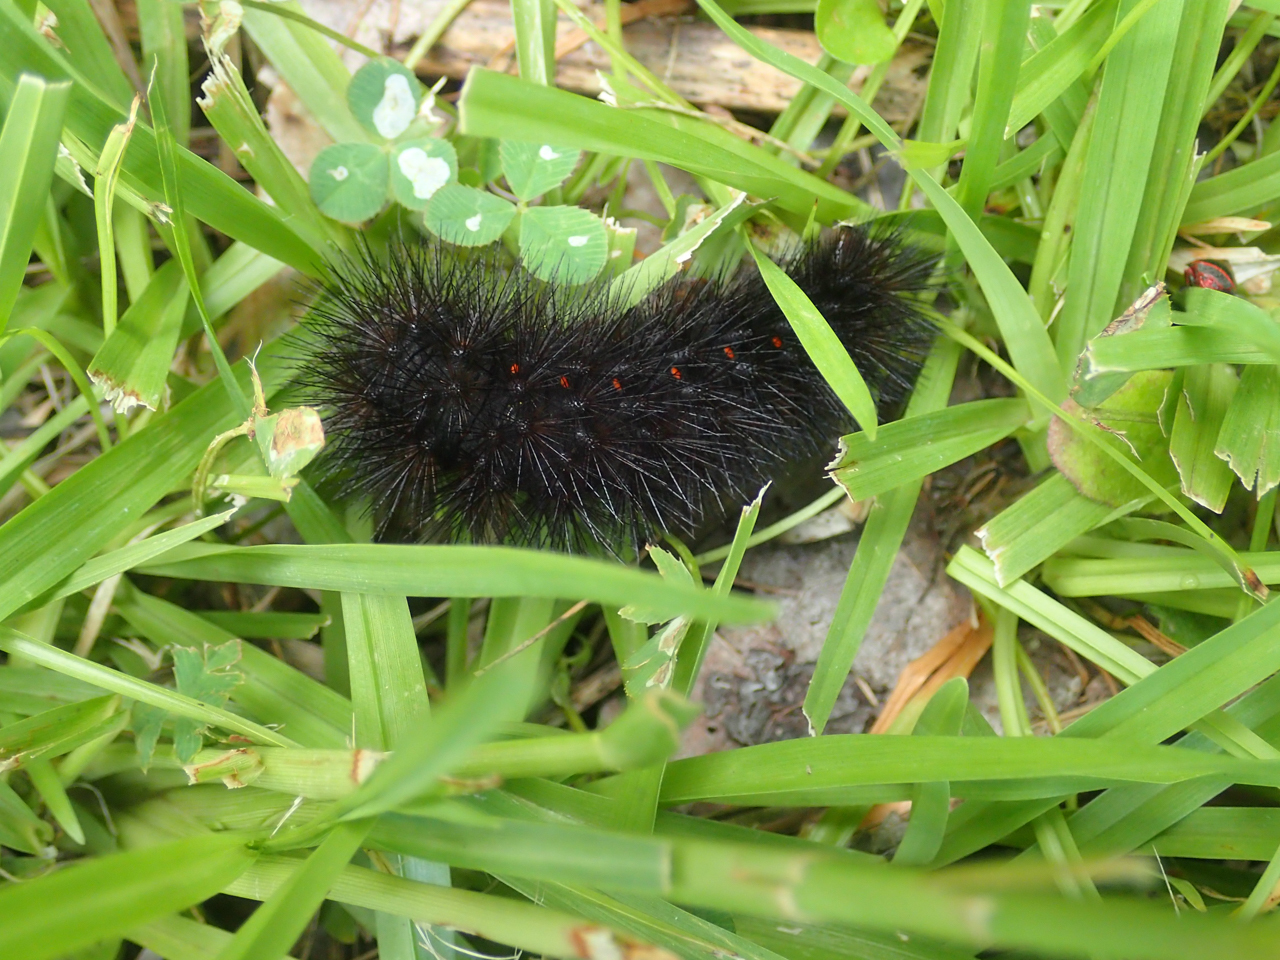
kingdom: Animalia
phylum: Arthropoda
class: Insecta
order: Lepidoptera
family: Erebidae
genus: Hypercompe
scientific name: Hypercompe scribonia
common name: Giant leopard moth
